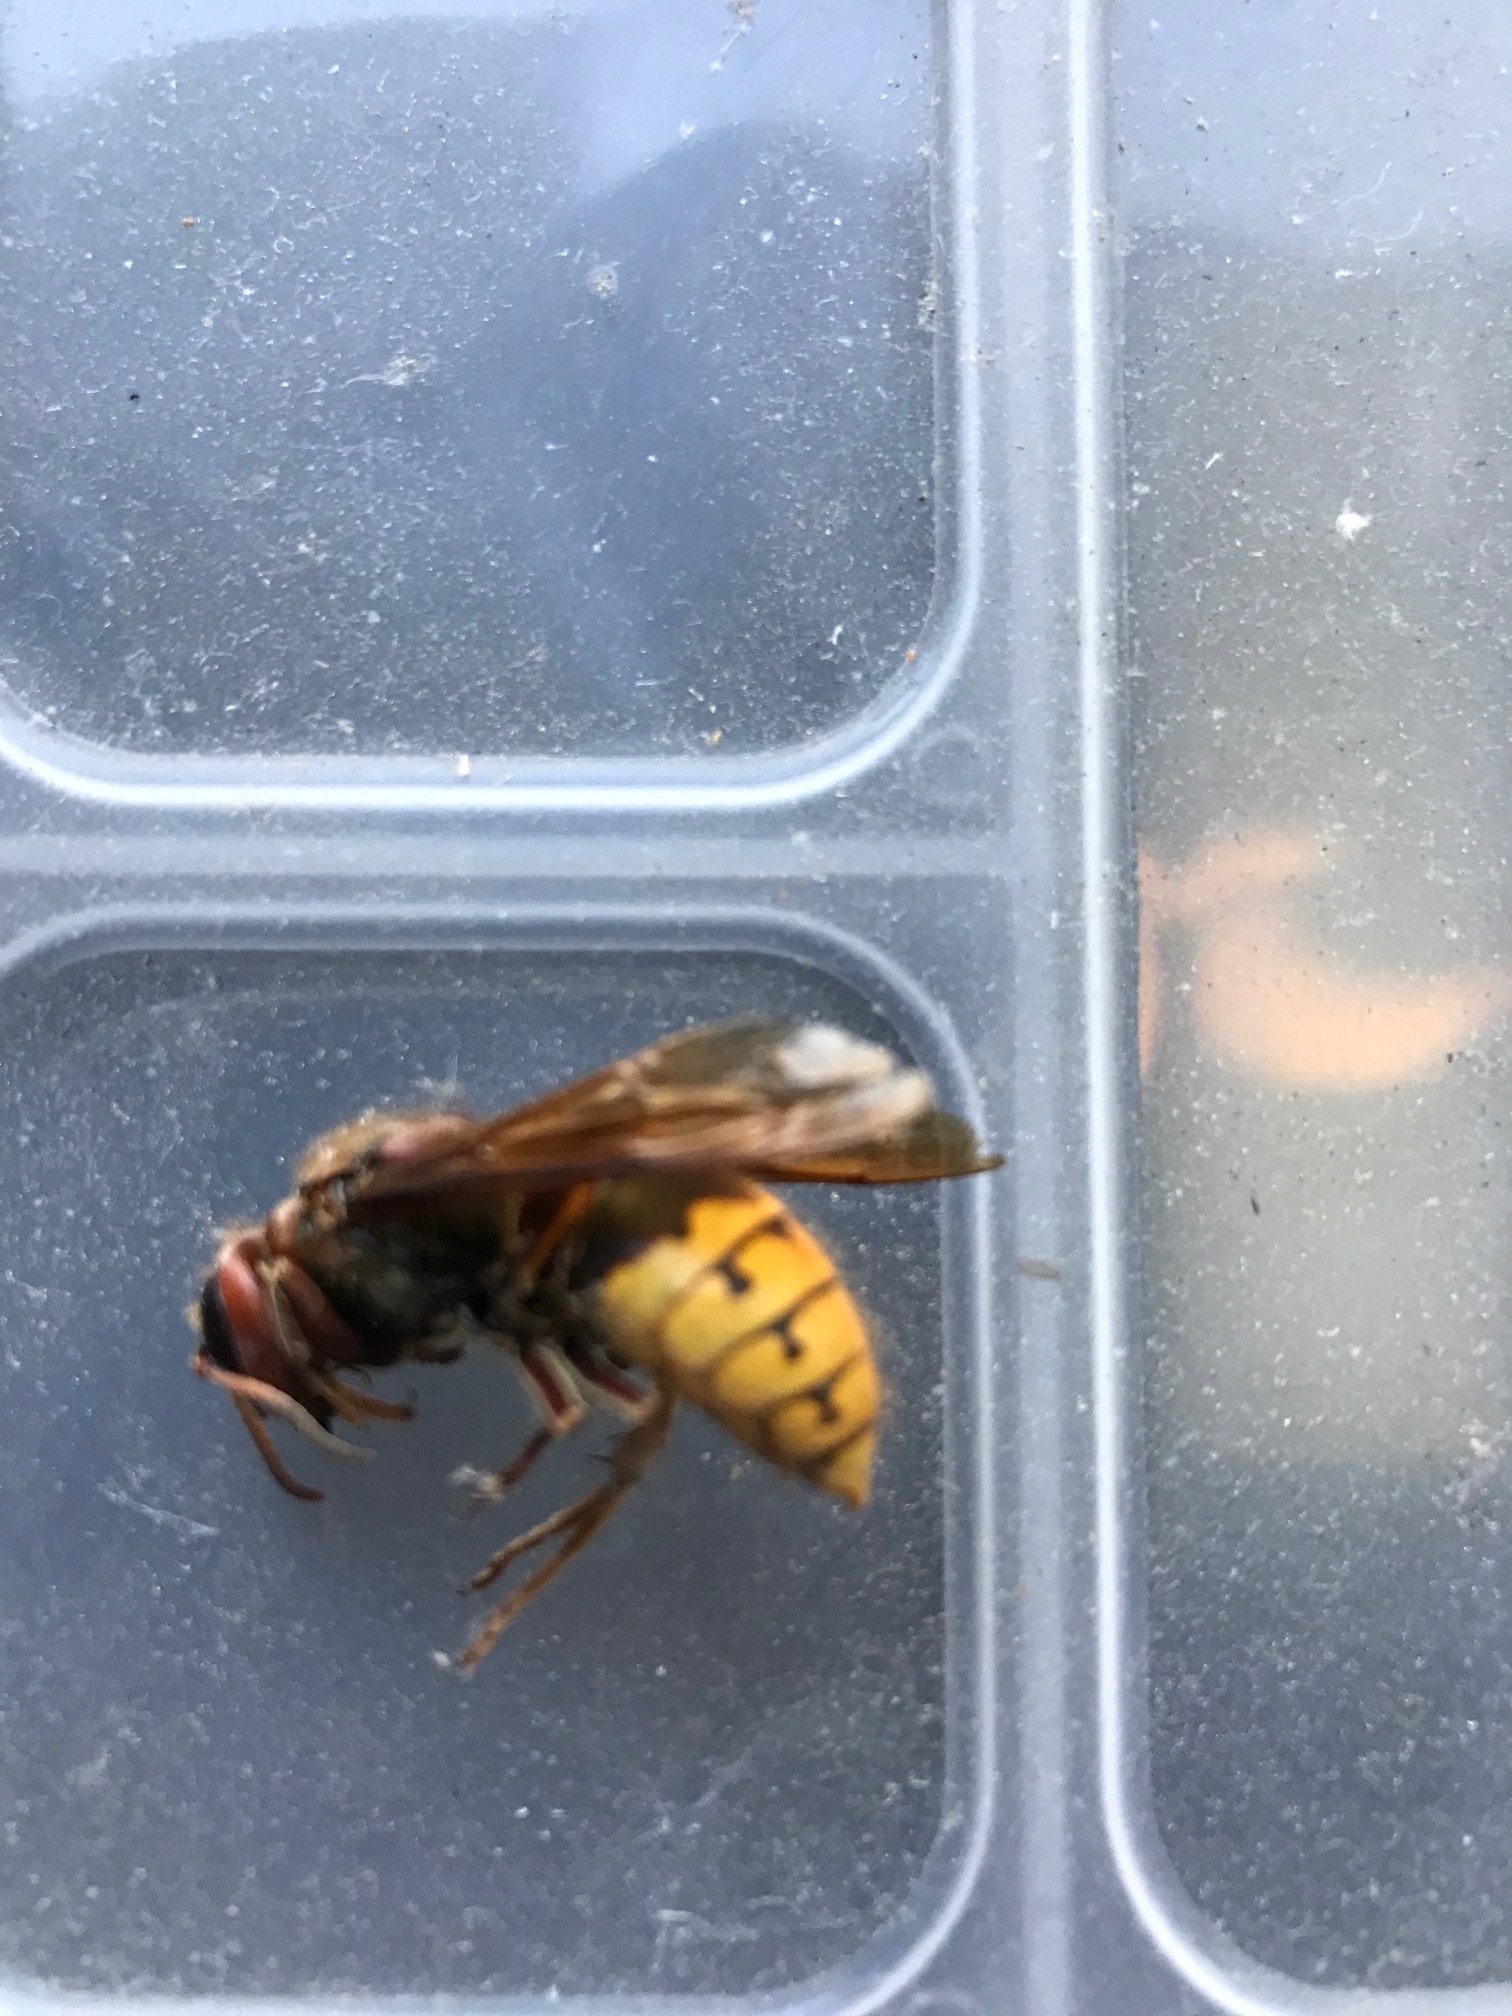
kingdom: Animalia
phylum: Arthropoda
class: Insecta
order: Hymenoptera
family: Vespidae
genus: Vespa
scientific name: Vespa crabro
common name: Hornet
